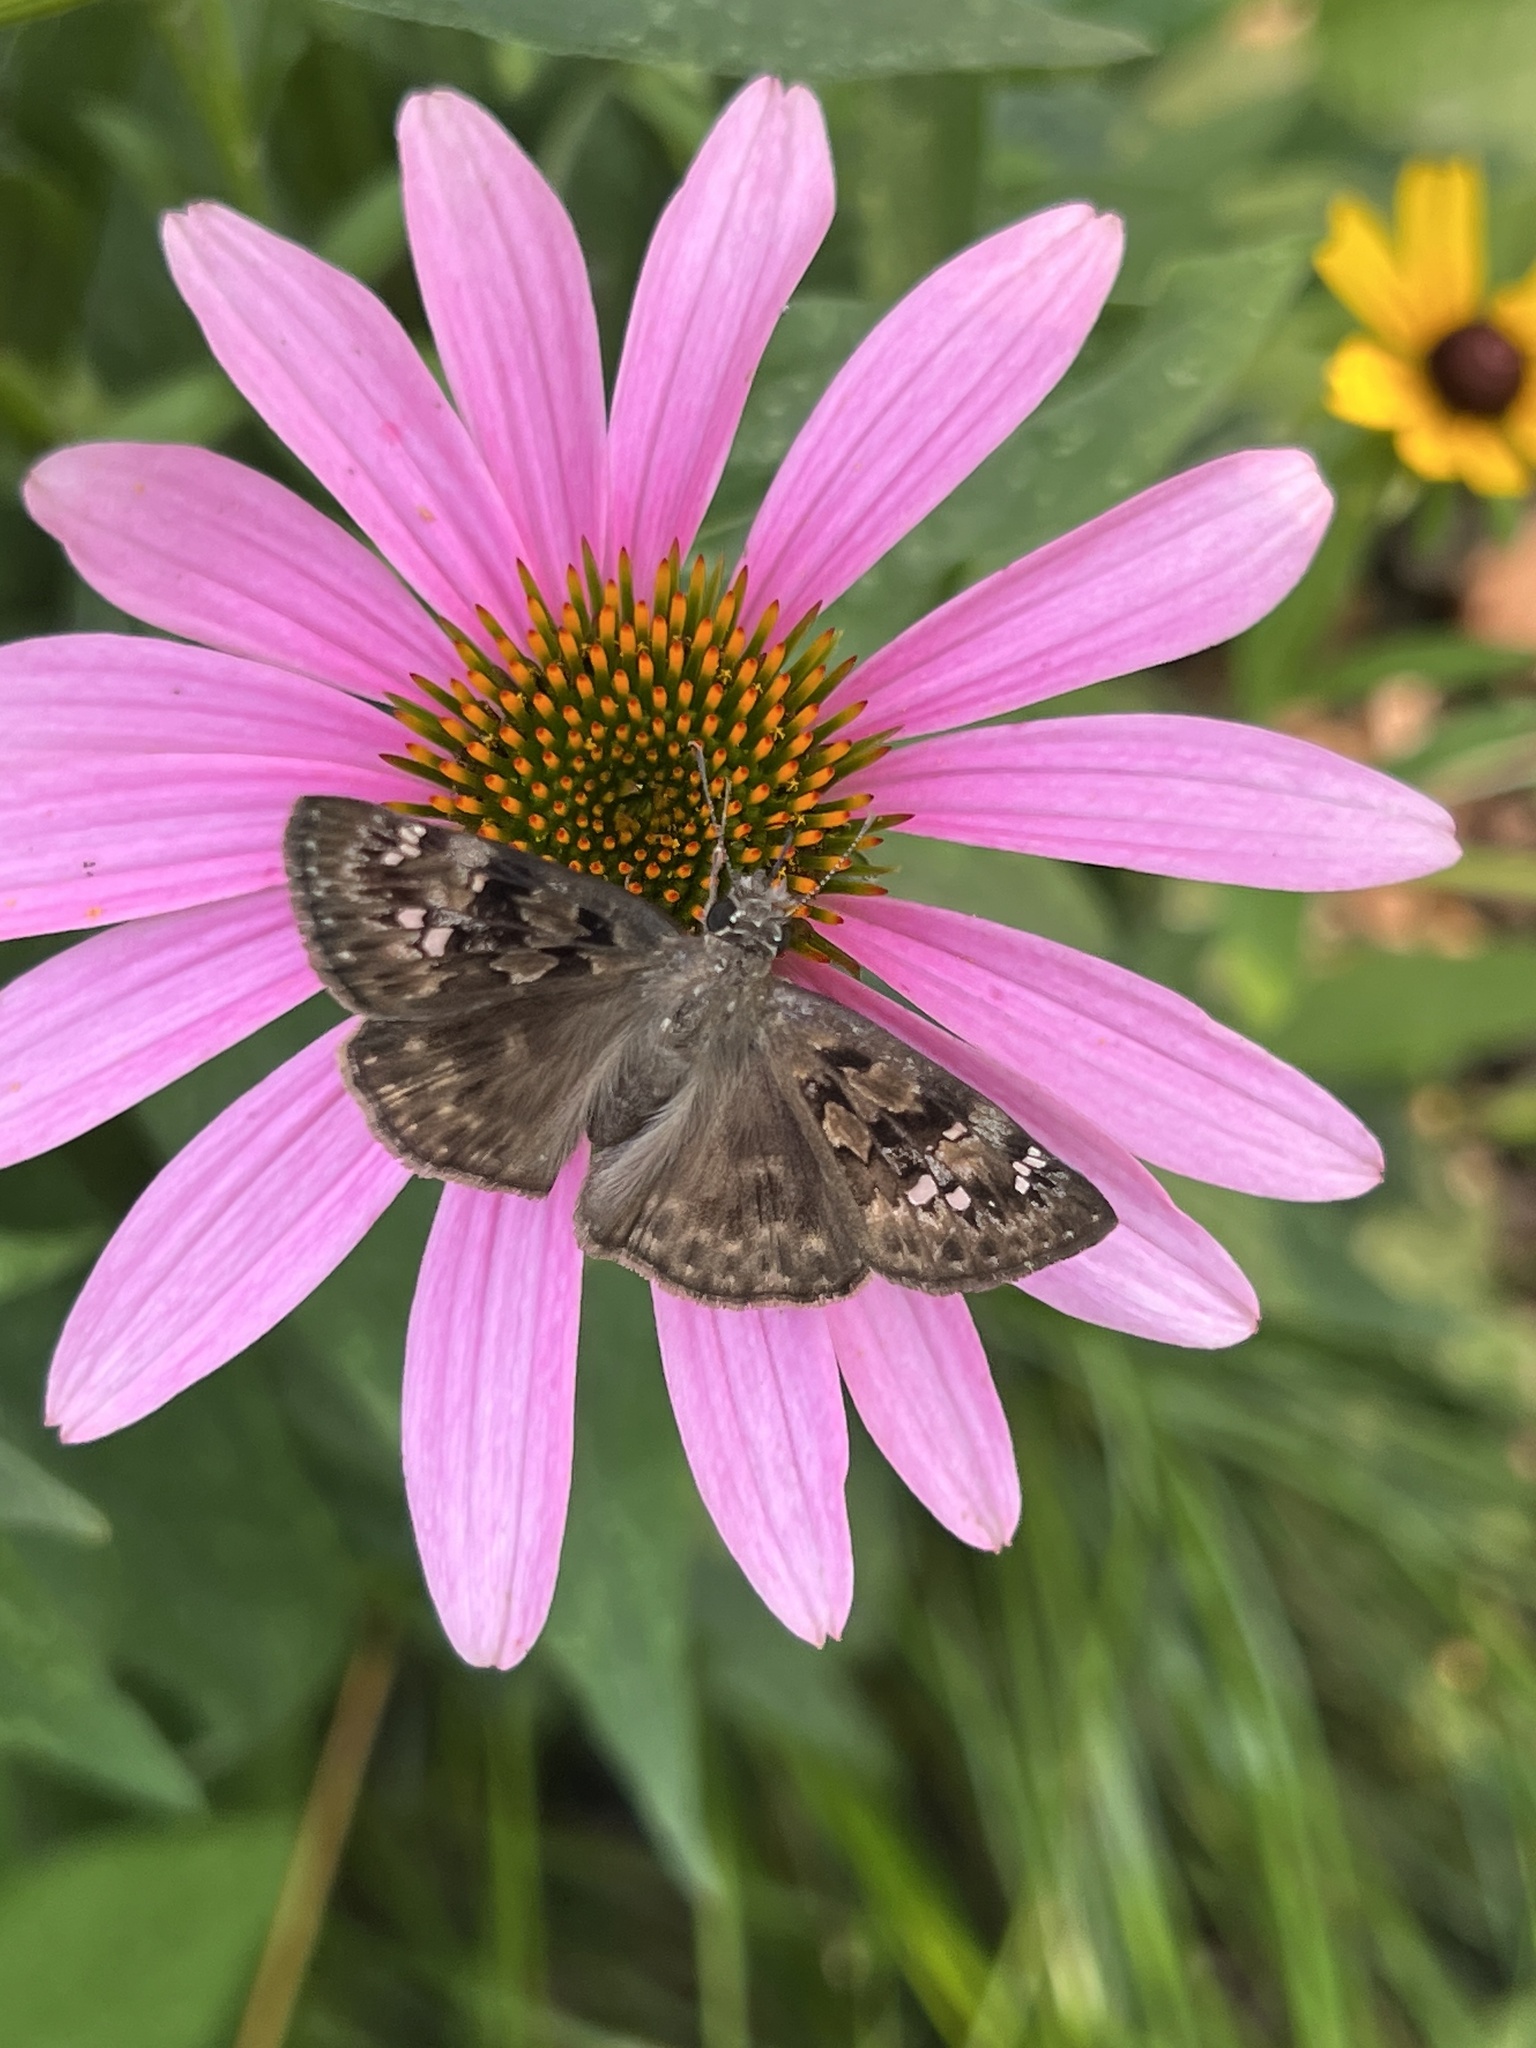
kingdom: Animalia
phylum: Arthropoda
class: Insecta
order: Lepidoptera
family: Hesperiidae
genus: Erynnis
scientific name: Erynnis horatius
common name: Horace's duskywing
